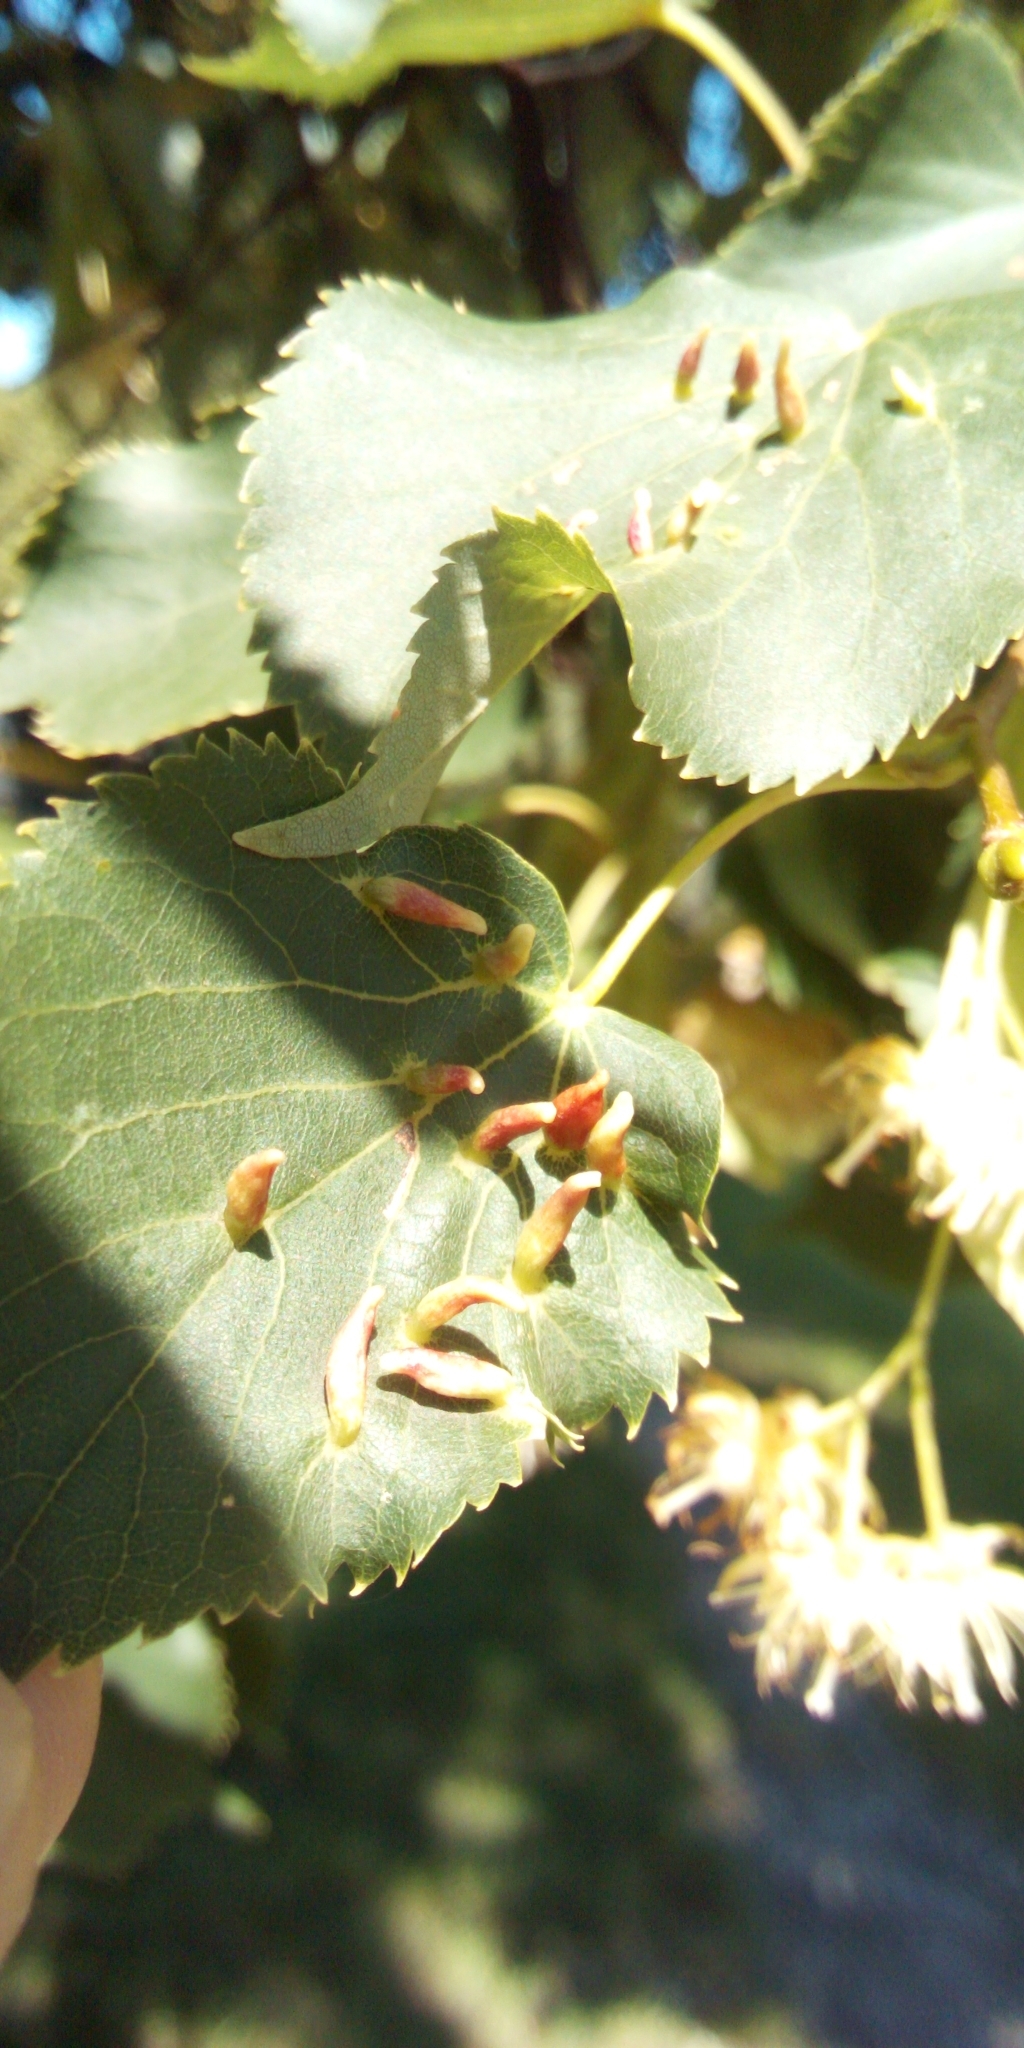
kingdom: Animalia
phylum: Arthropoda
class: Arachnida
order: Trombidiformes
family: Eriophyidae
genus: Eriophyes
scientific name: Eriophyes tiliae
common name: Red nail gall mite
